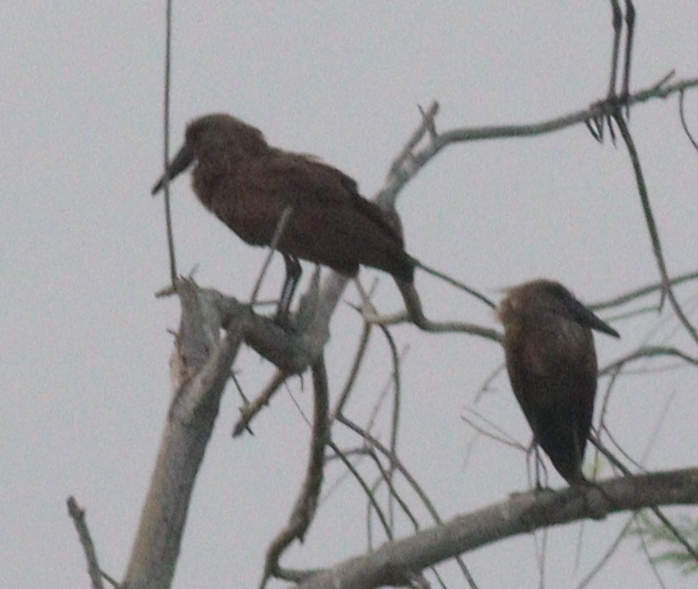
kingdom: Animalia
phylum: Chordata
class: Aves
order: Pelecaniformes
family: Scopidae
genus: Scopus
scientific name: Scopus umbretta
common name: Hamerkop
